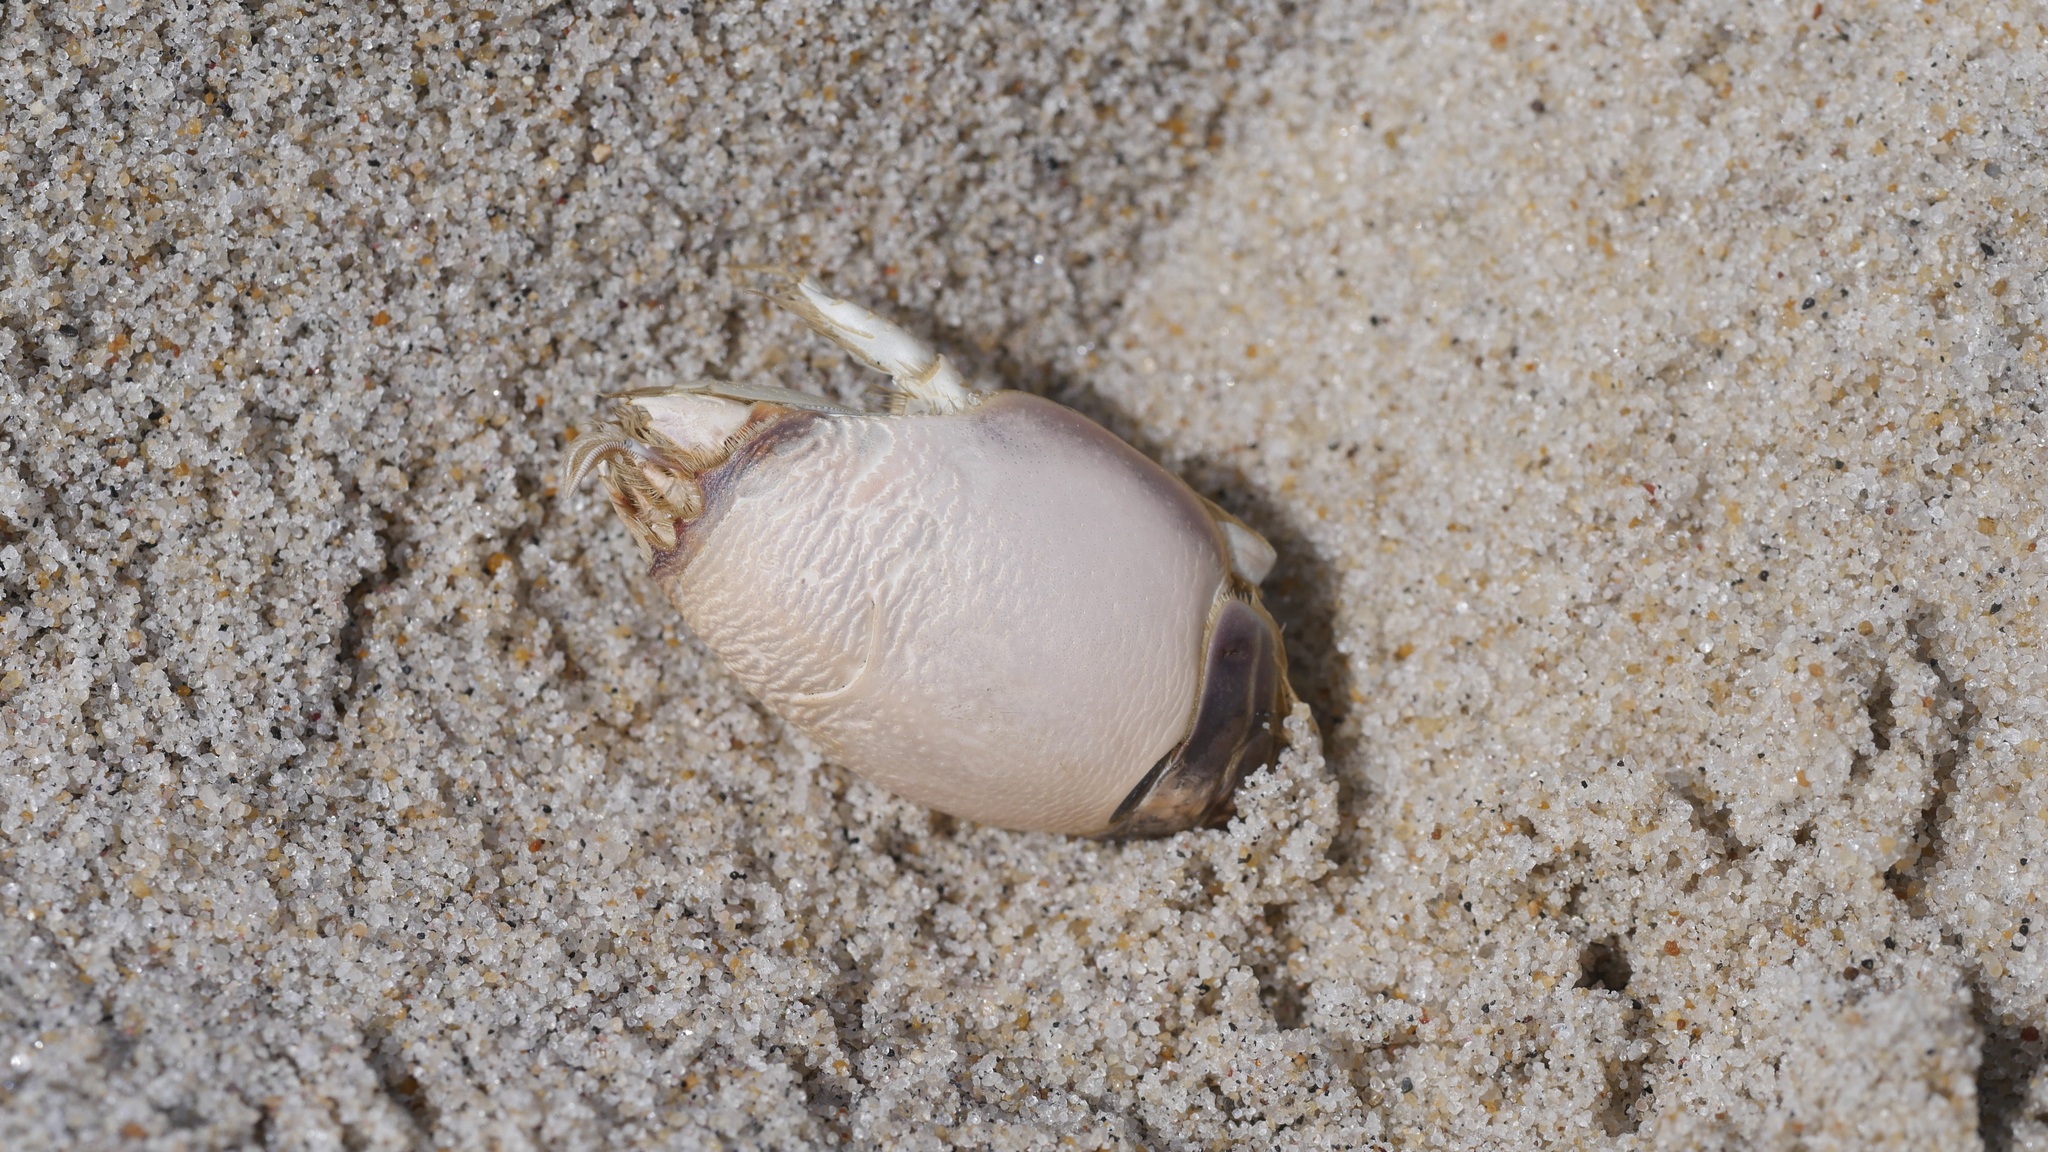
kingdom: Animalia
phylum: Arthropoda
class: Malacostraca
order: Decapoda
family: Hippidae
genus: Emerita
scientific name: Emerita talpoida
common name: Atlantic sand crab
